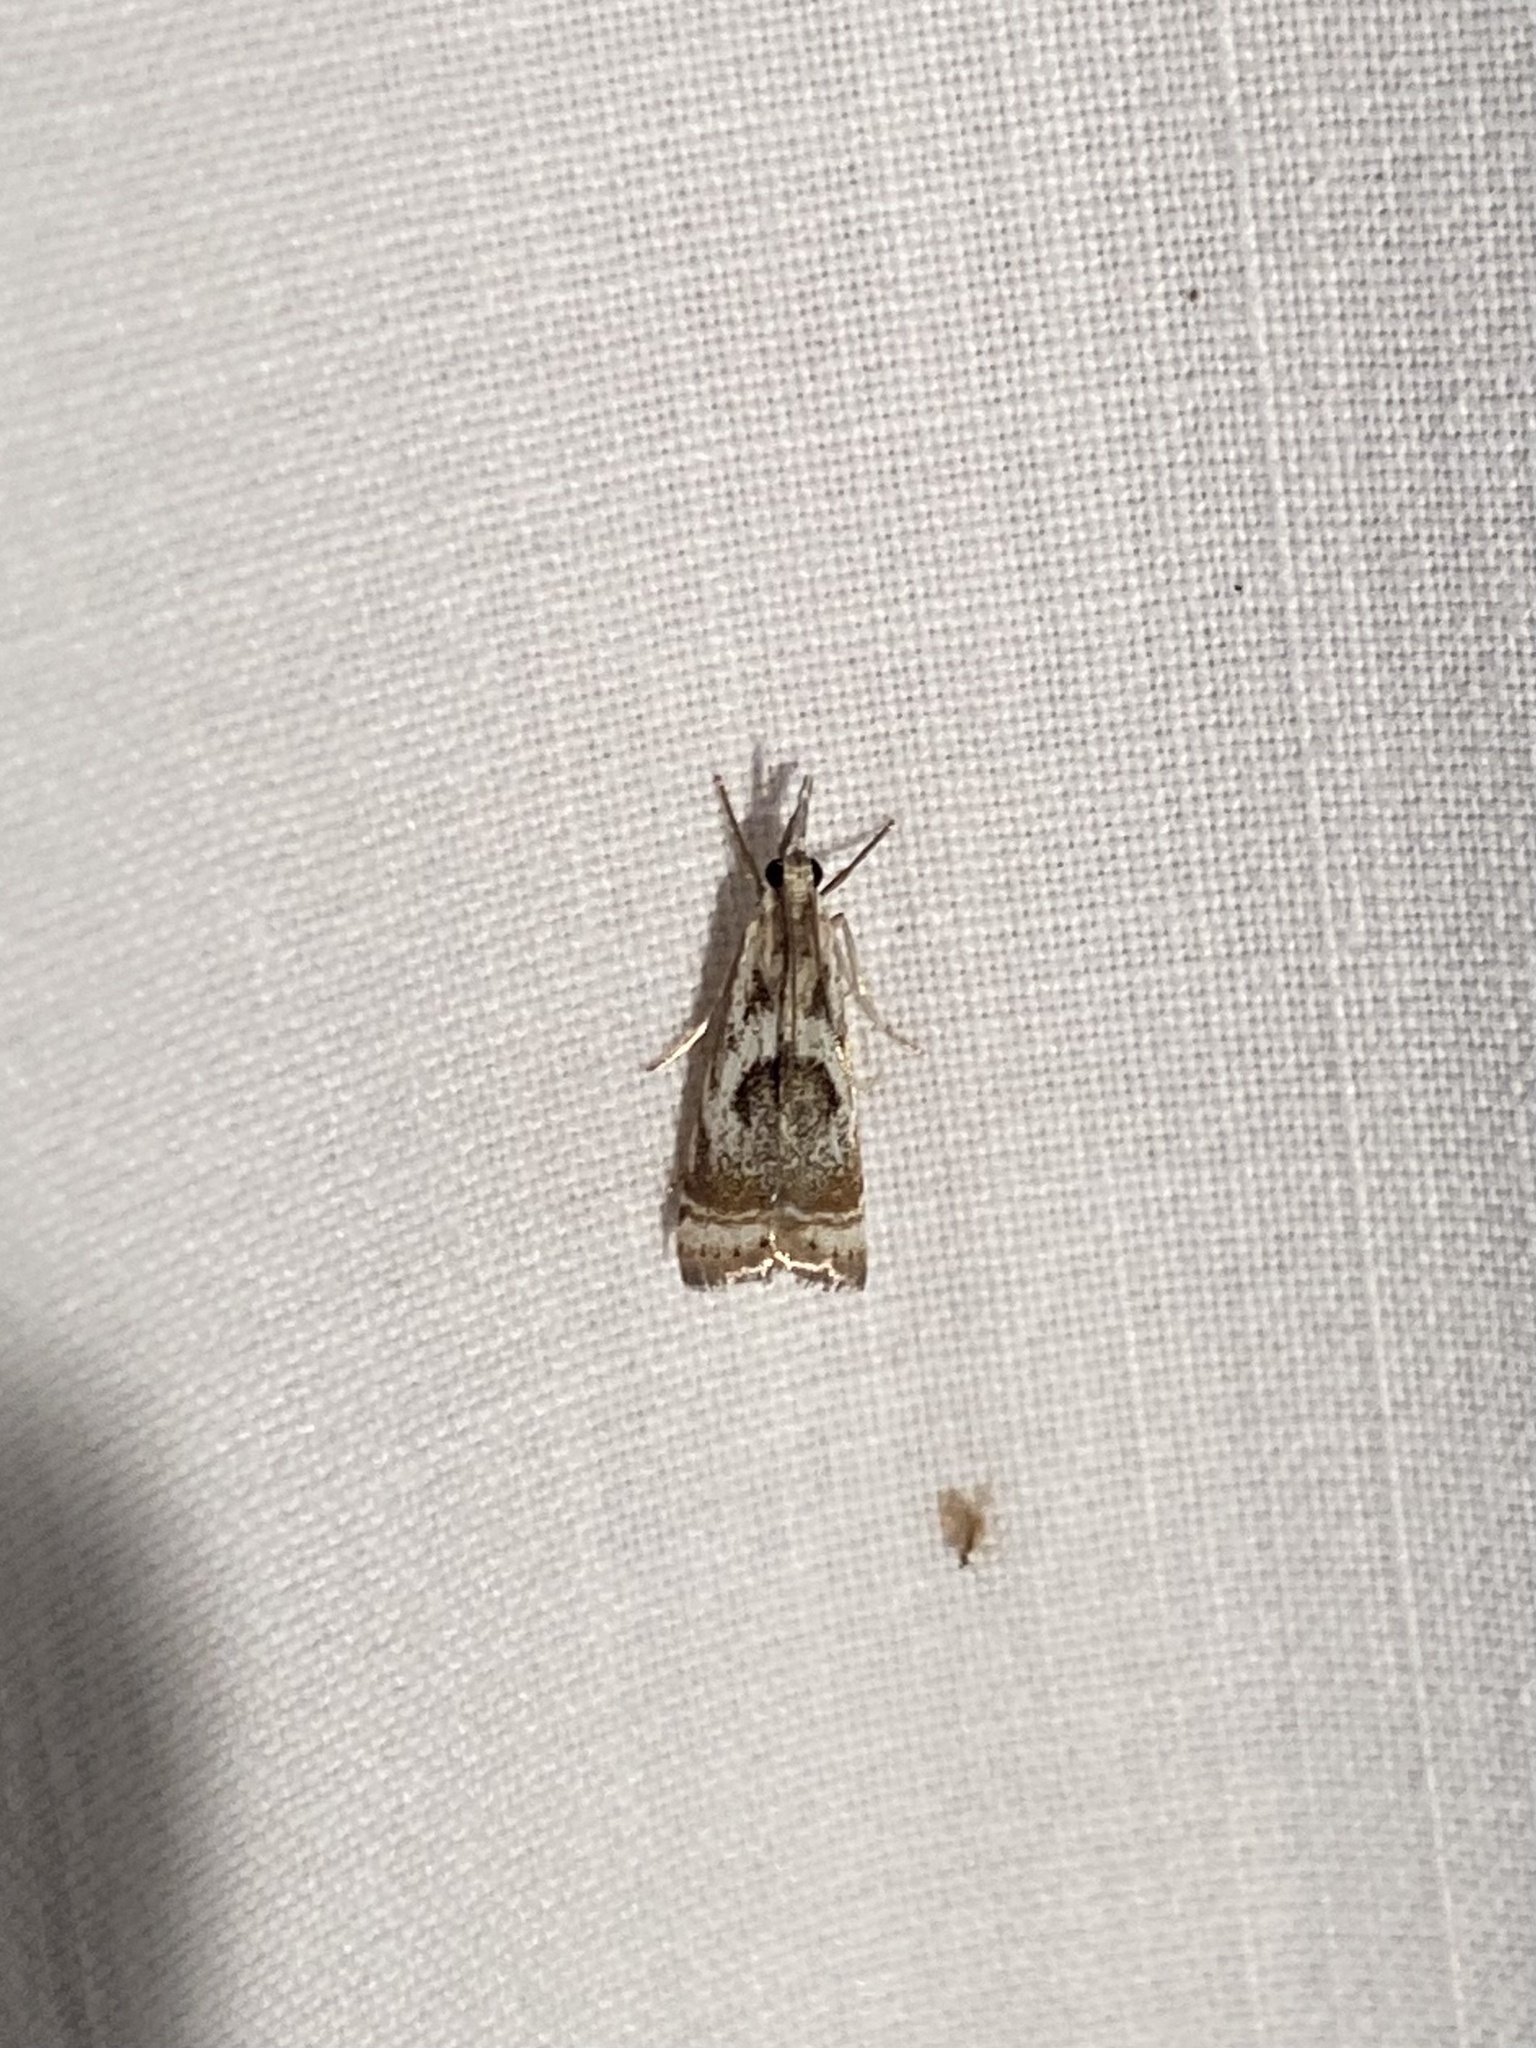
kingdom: Animalia
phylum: Arthropoda
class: Insecta
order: Lepidoptera
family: Crambidae
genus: Microcrambus
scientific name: Microcrambus elegans
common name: Elegant grass-veneer
